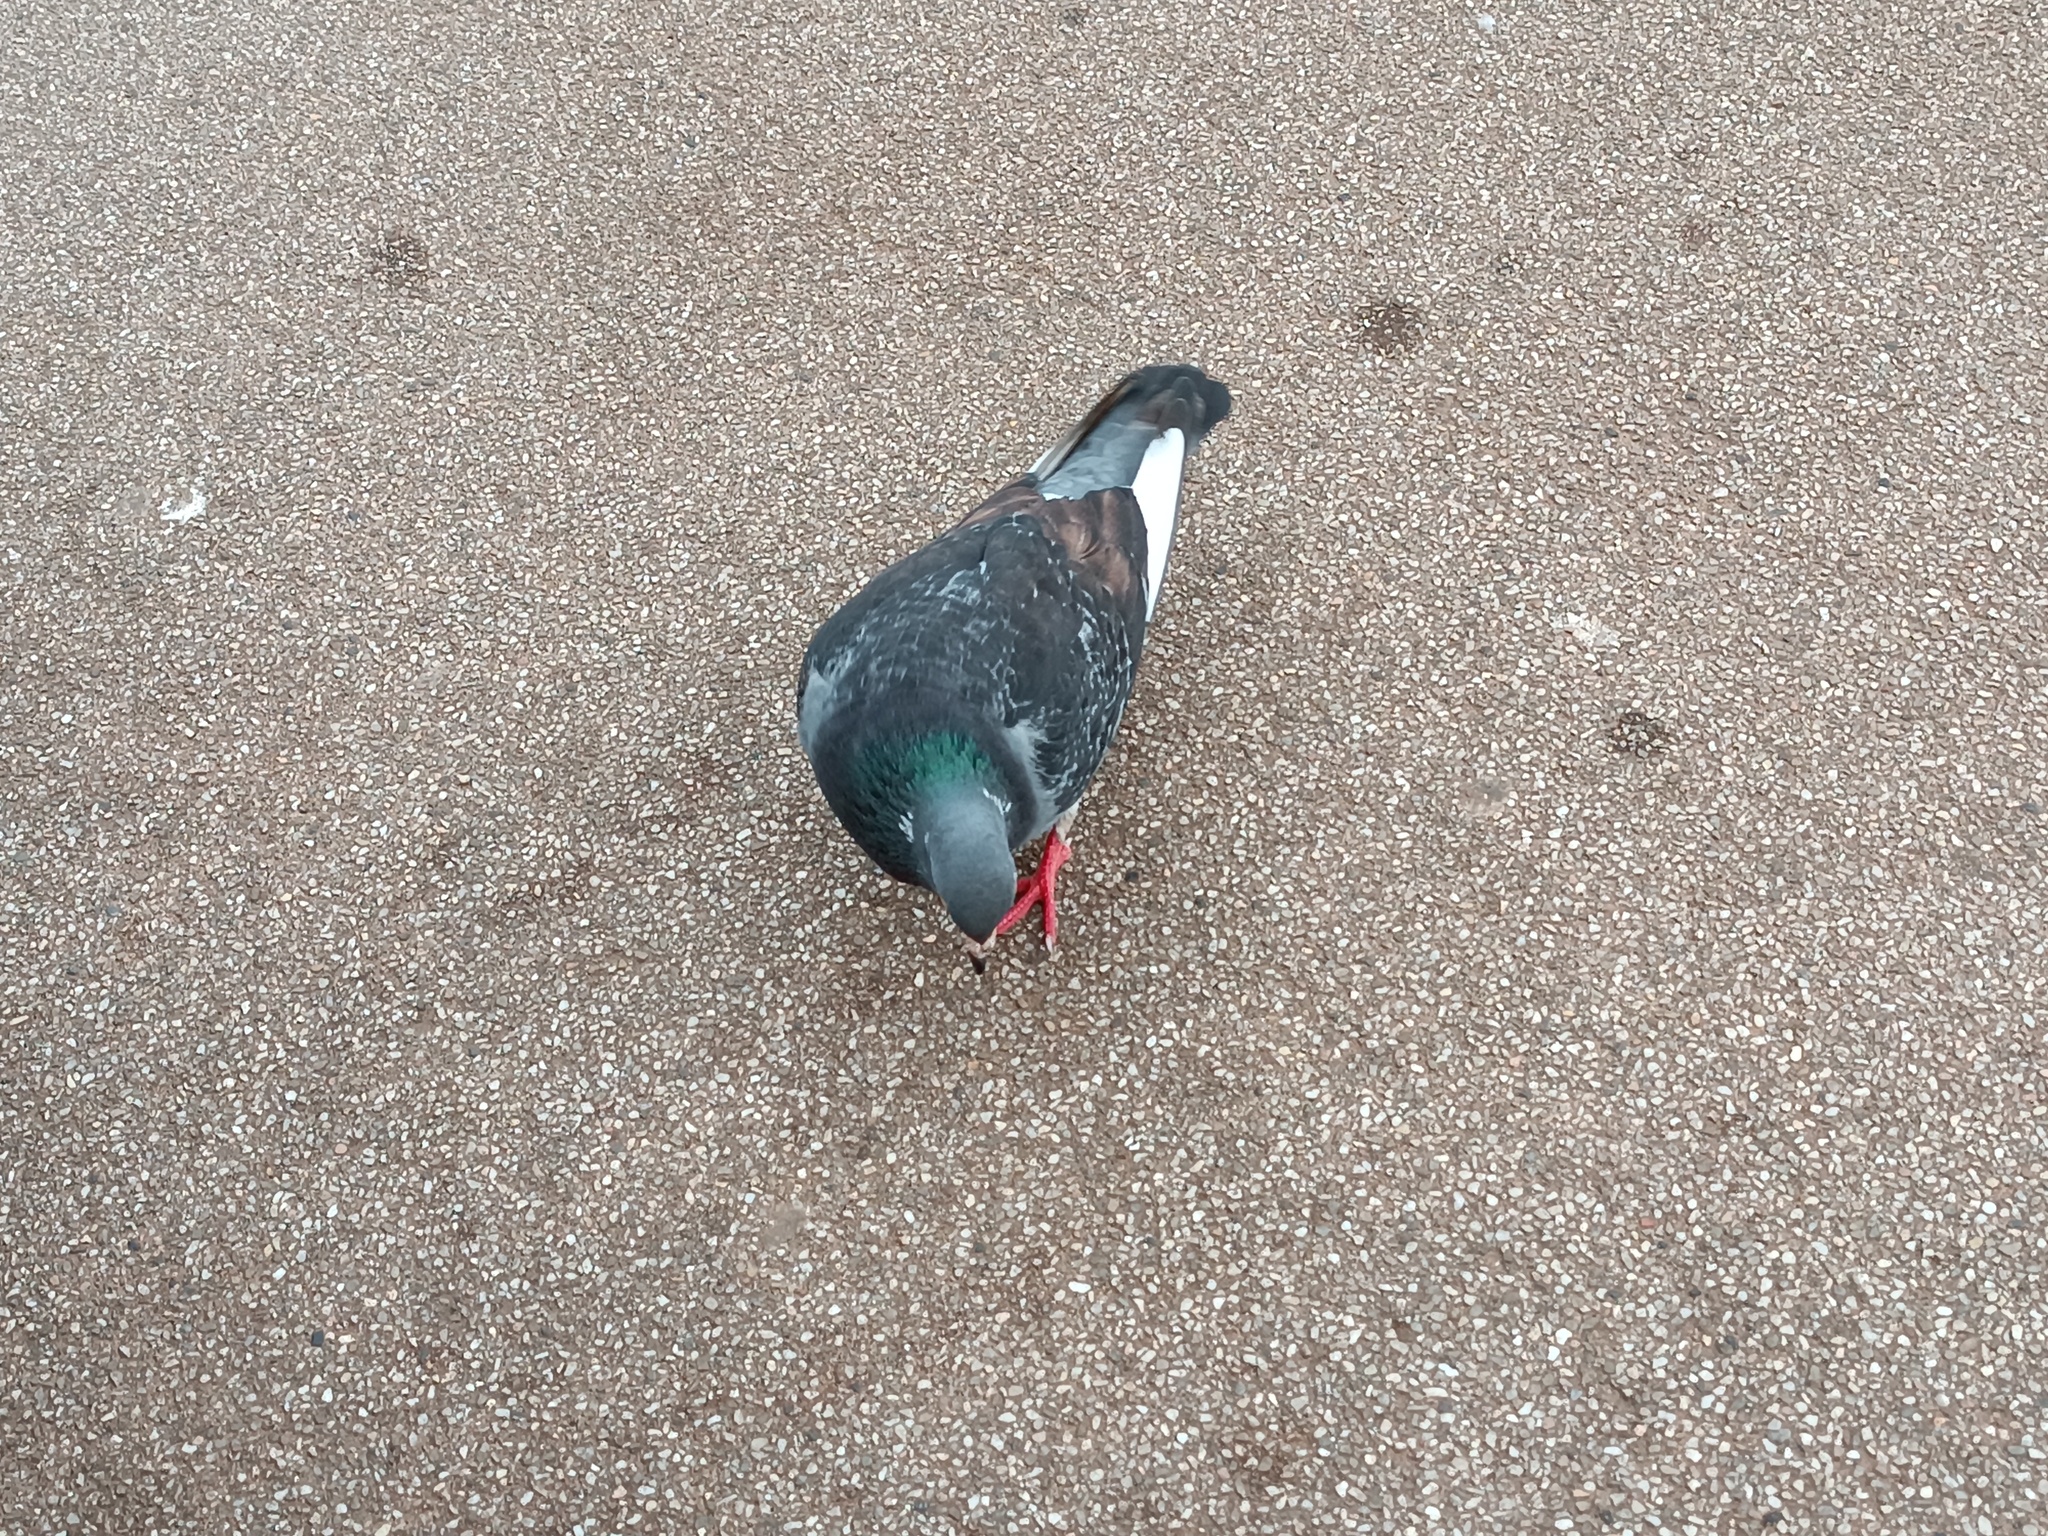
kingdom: Animalia
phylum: Chordata
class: Aves
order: Columbiformes
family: Columbidae
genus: Columba
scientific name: Columba livia
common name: Rock pigeon
